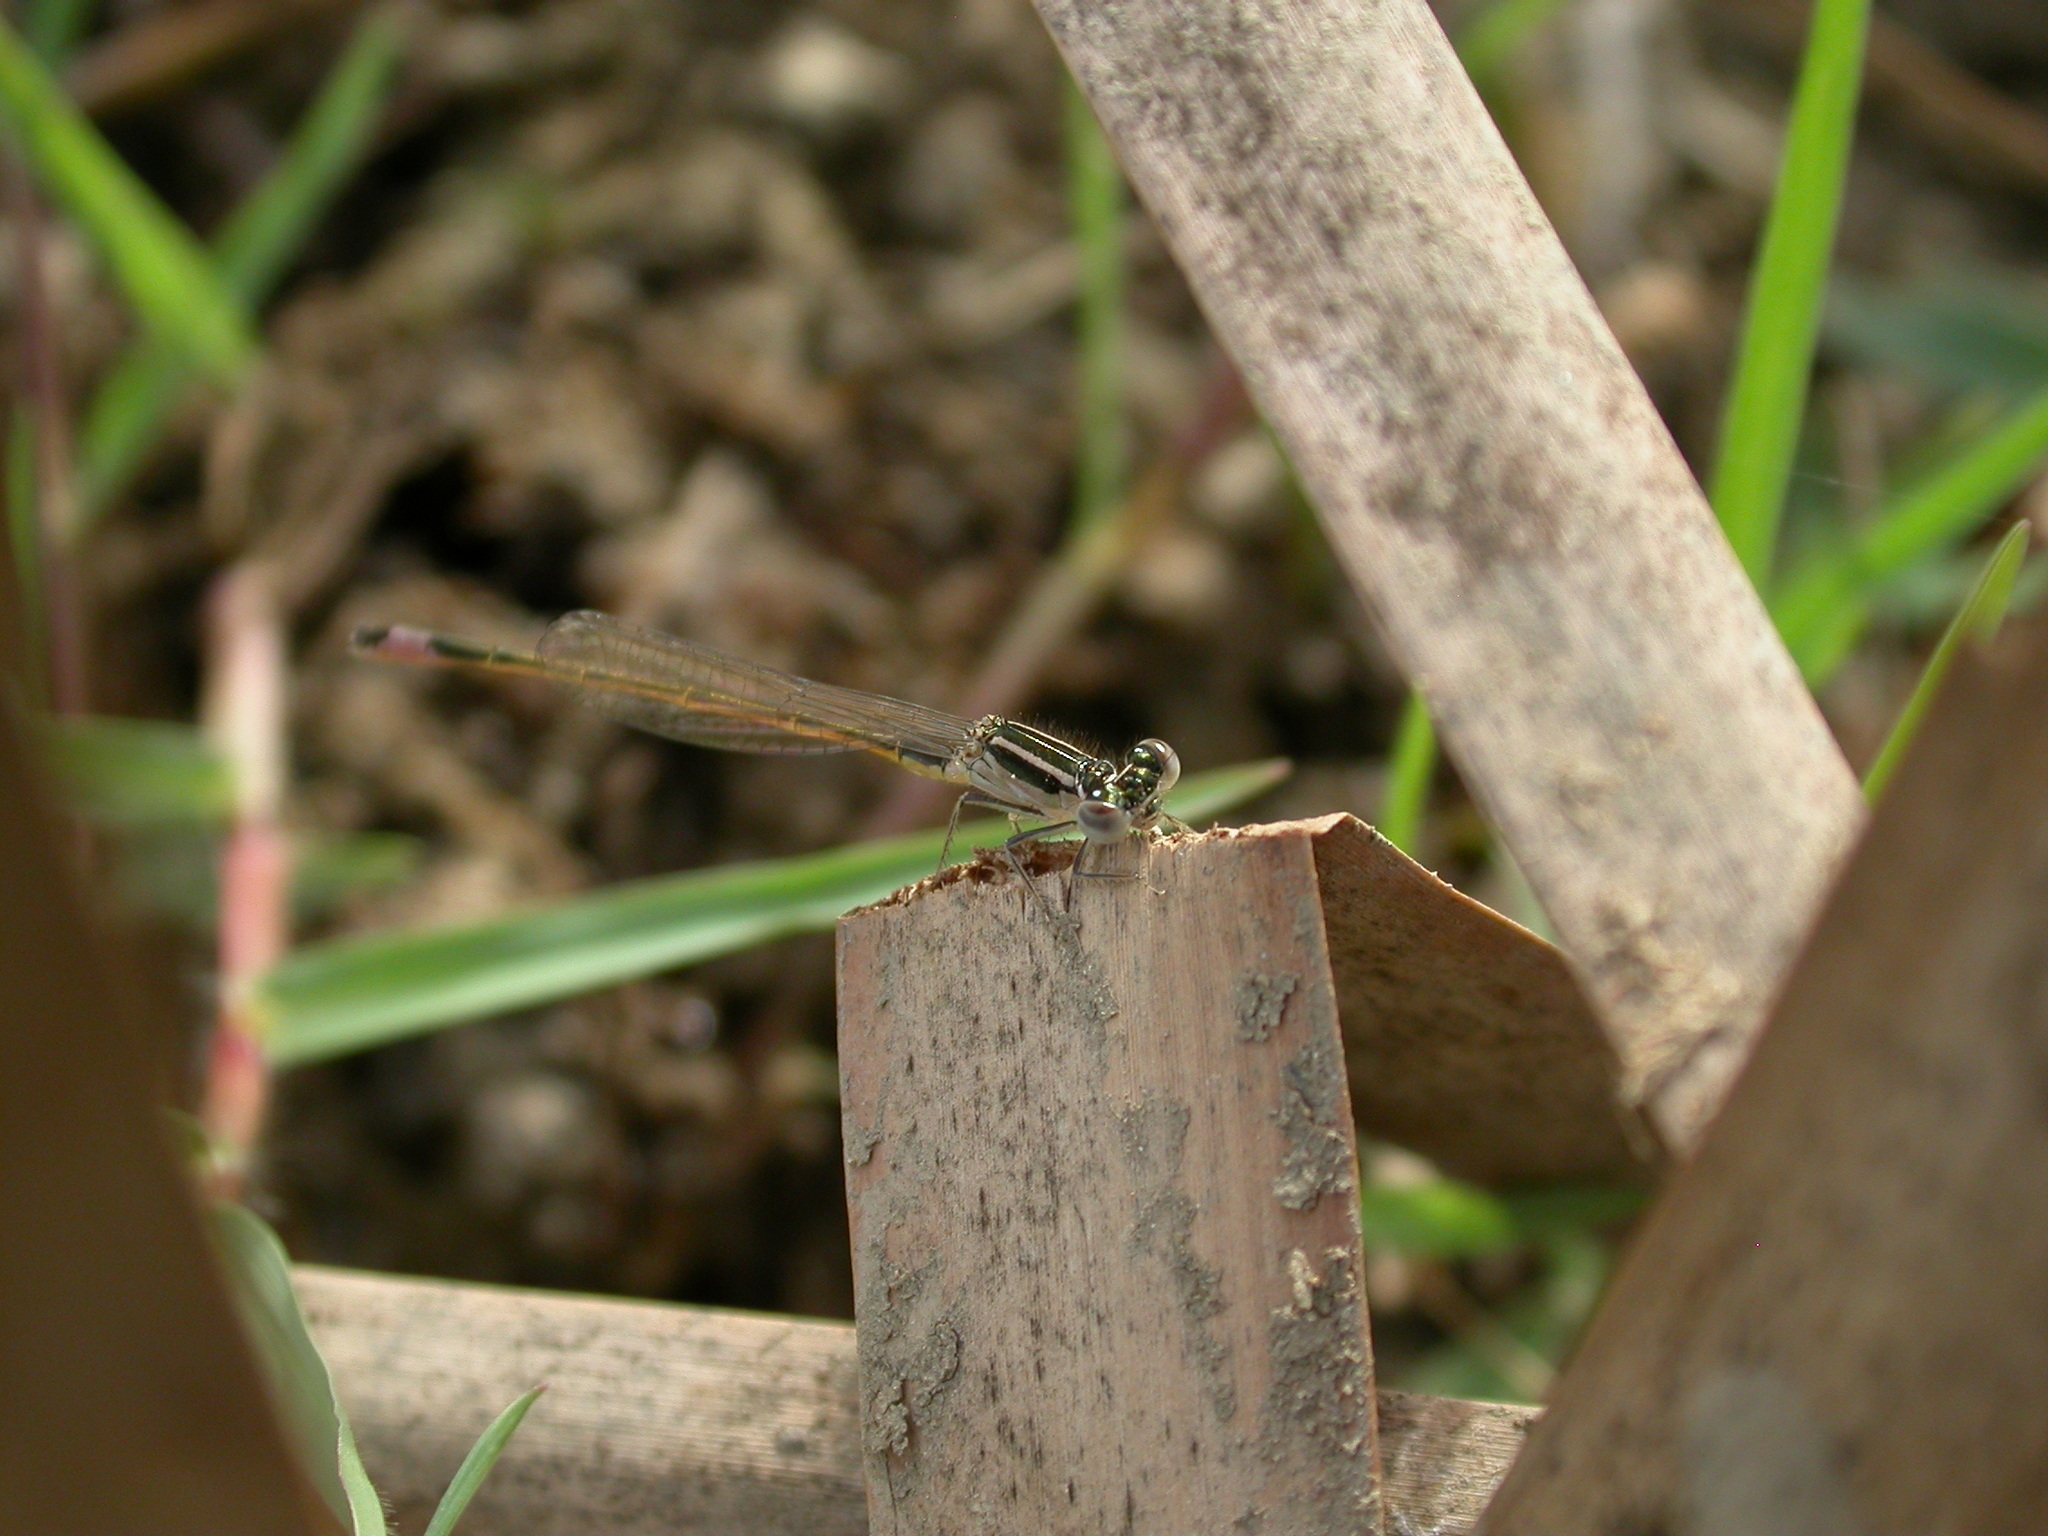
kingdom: Animalia
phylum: Arthropoda
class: Insecta
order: Odonata
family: Coenagrionidae
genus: Ischnura
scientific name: Ischnura graellsii
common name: Iberian bluetail
